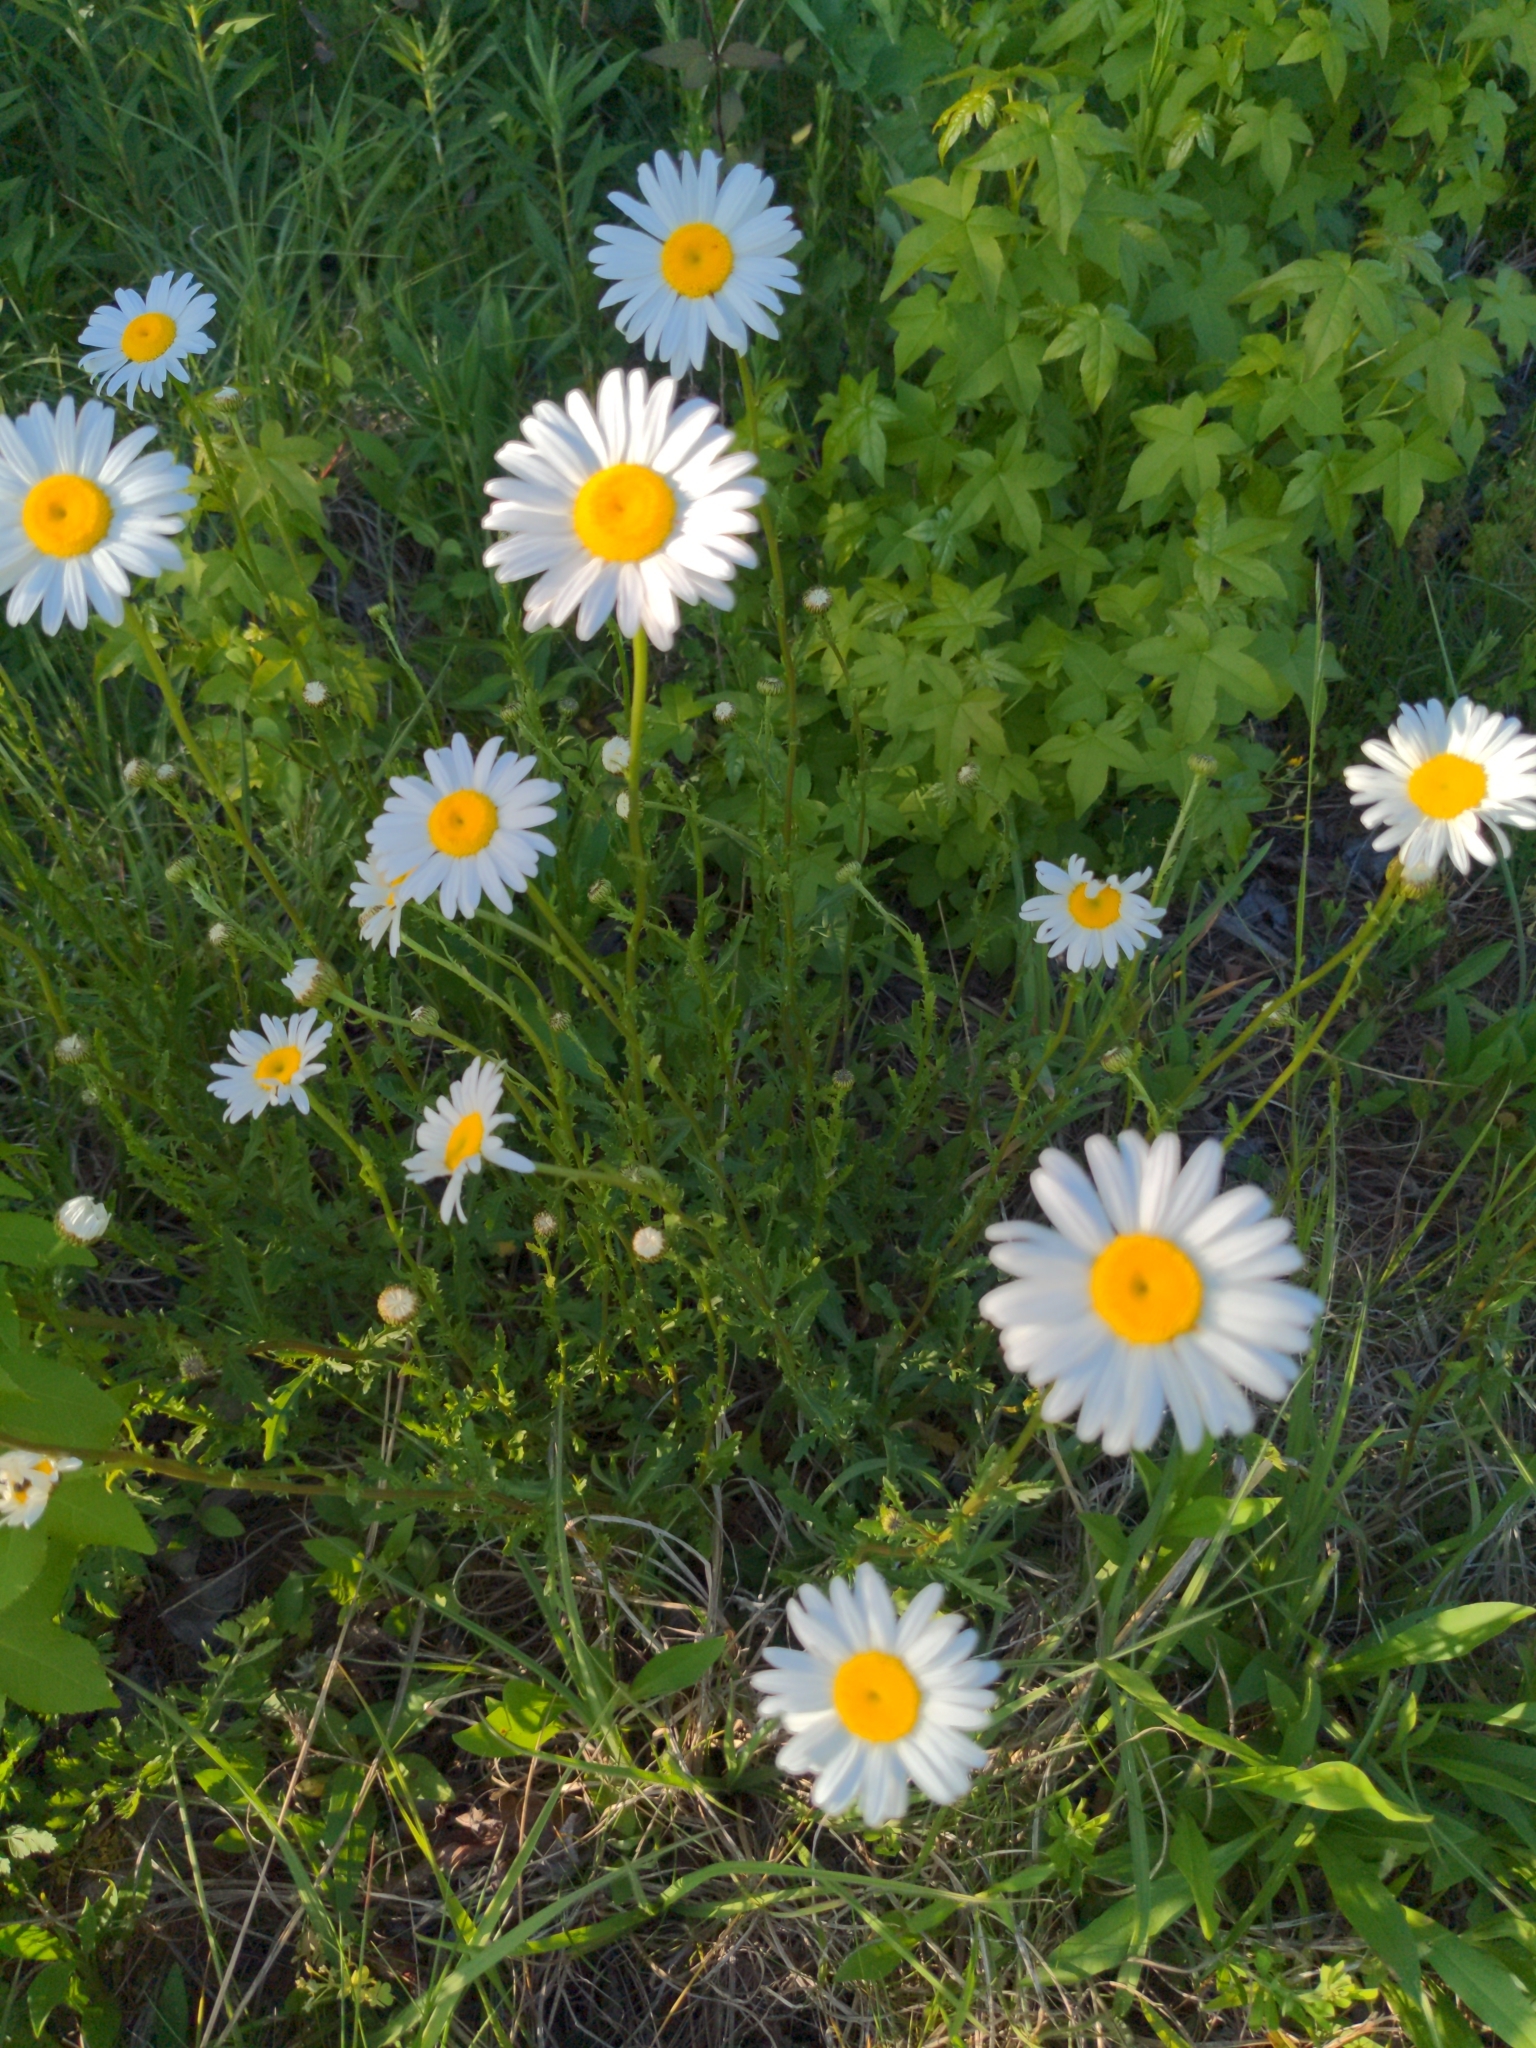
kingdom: Plantae
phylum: Tracheophyta
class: Magnoliopsida
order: Asterales
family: Asteraceae
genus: Leucanthemum
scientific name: Leucanthemum vulgare
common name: Oxeye daisy
